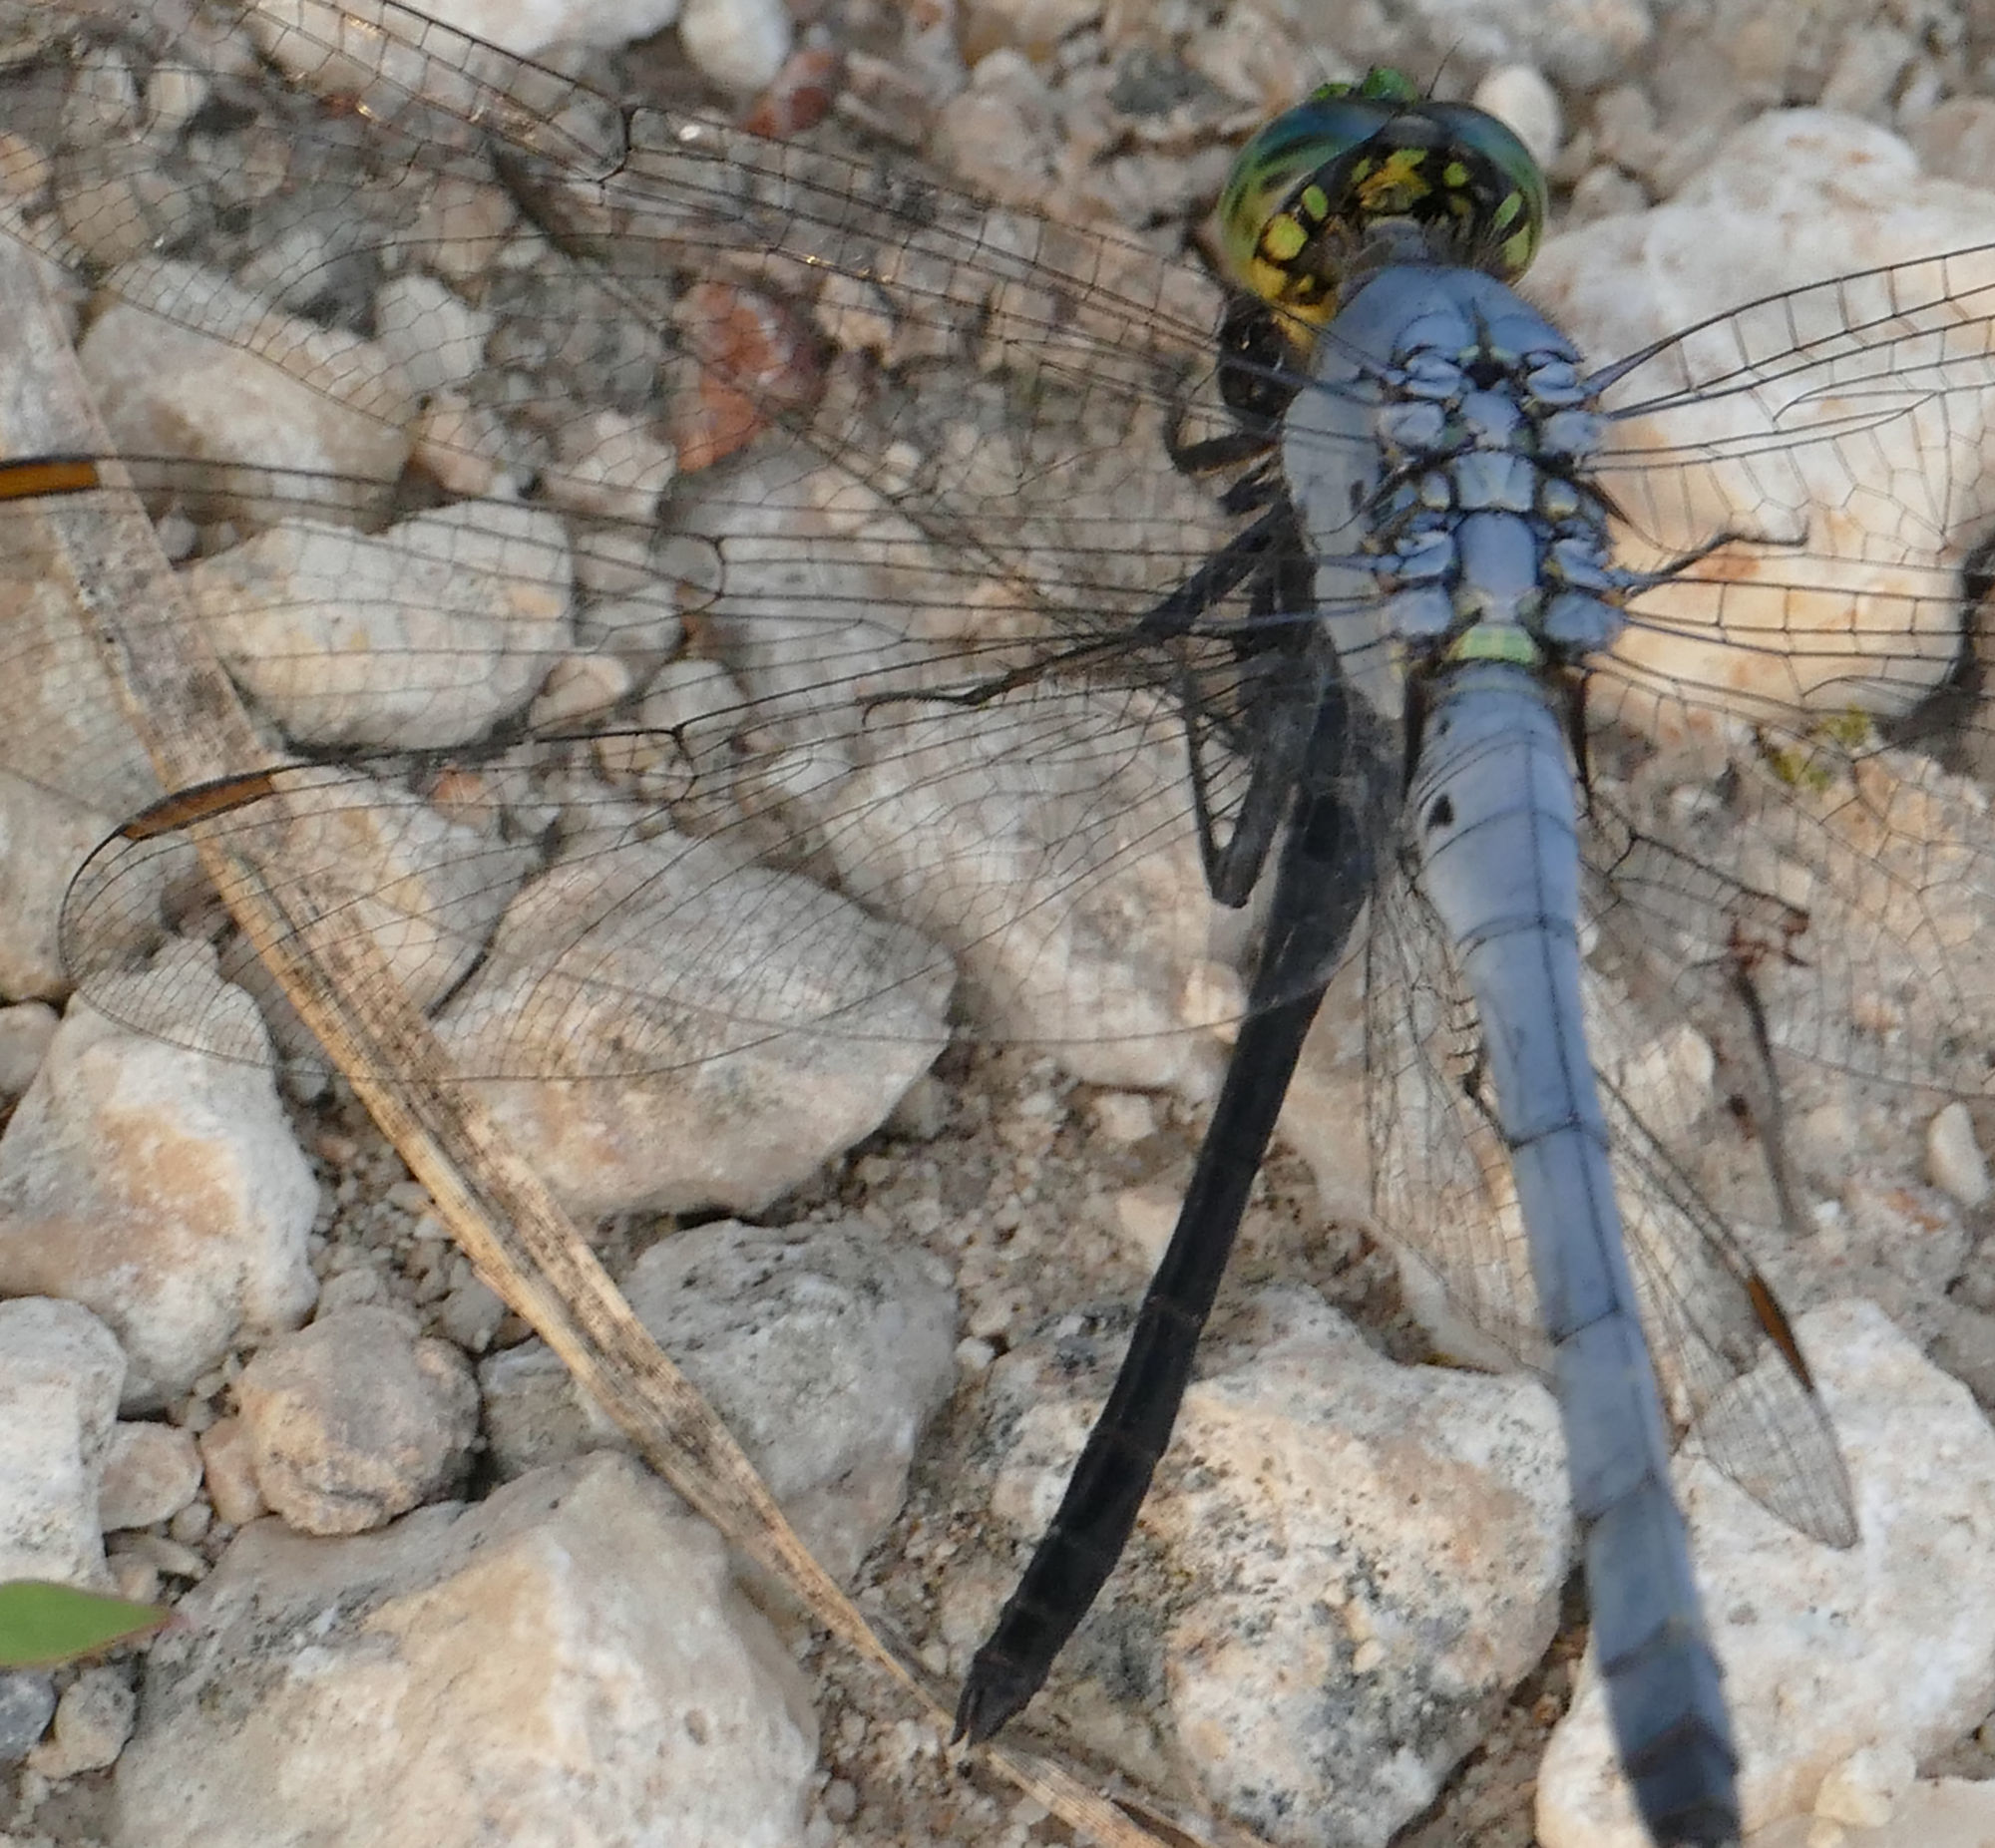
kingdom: Animalia
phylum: Arthropoda
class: Insecta
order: Odonata
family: Libellulidae
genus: Erythemis
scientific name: Erythemis simplicicollis
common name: Eastern pondhawk
